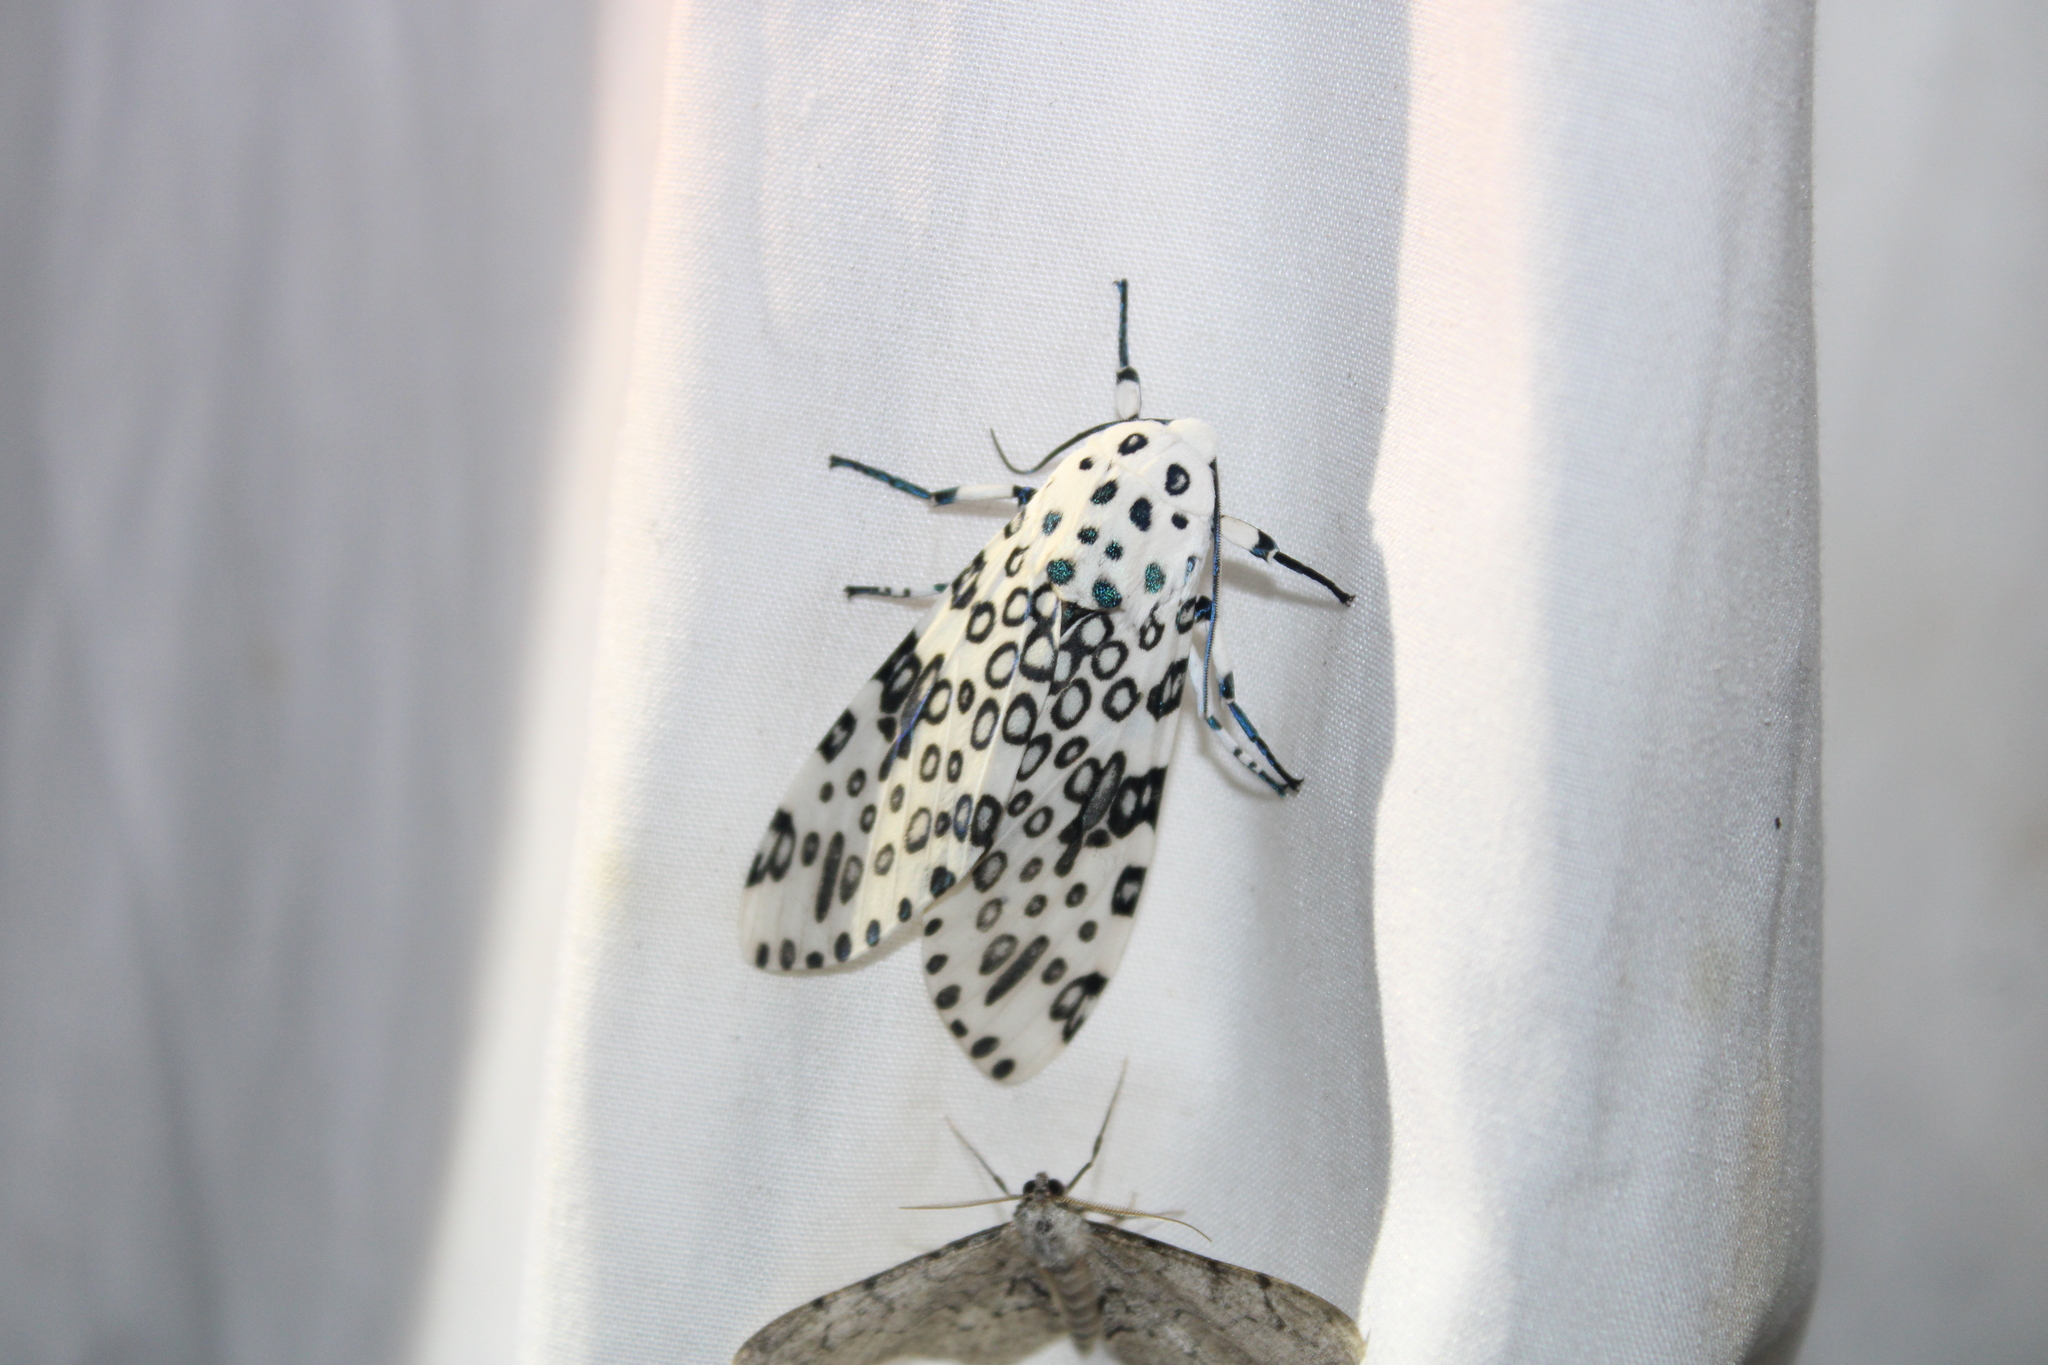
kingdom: Animalia
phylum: Arthropoda
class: Insecta
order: Lepidoptera
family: Erebidae
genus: Hypercompe
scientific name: Hypercompe scribonia
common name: Giant leopard moth
